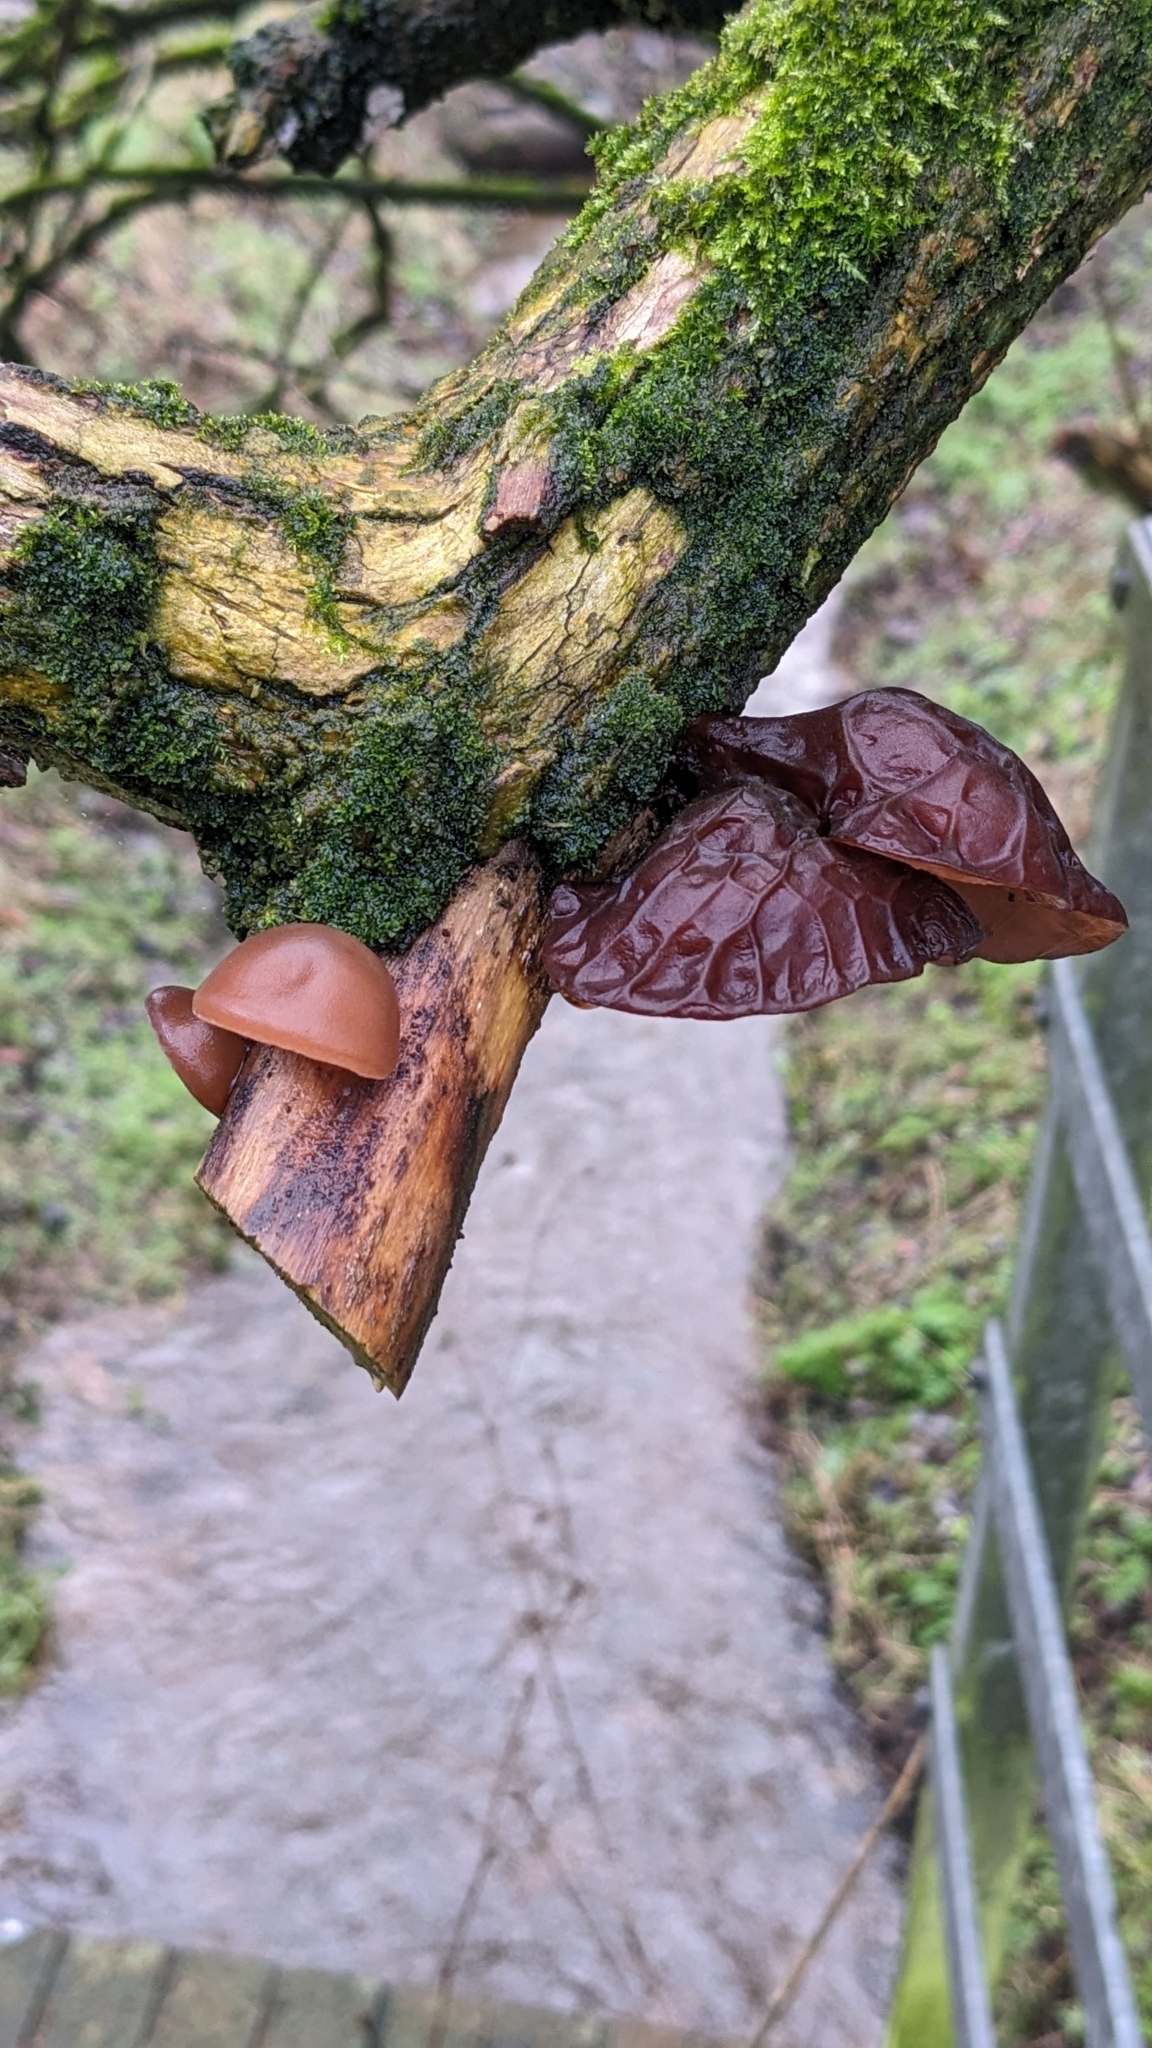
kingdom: Fungi
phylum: Basidiomycota
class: Agaricomycetes
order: Auriculariales
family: Auriculariaceae
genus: Auricularia
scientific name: Auricularia auricula-judae
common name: Jelly ear
